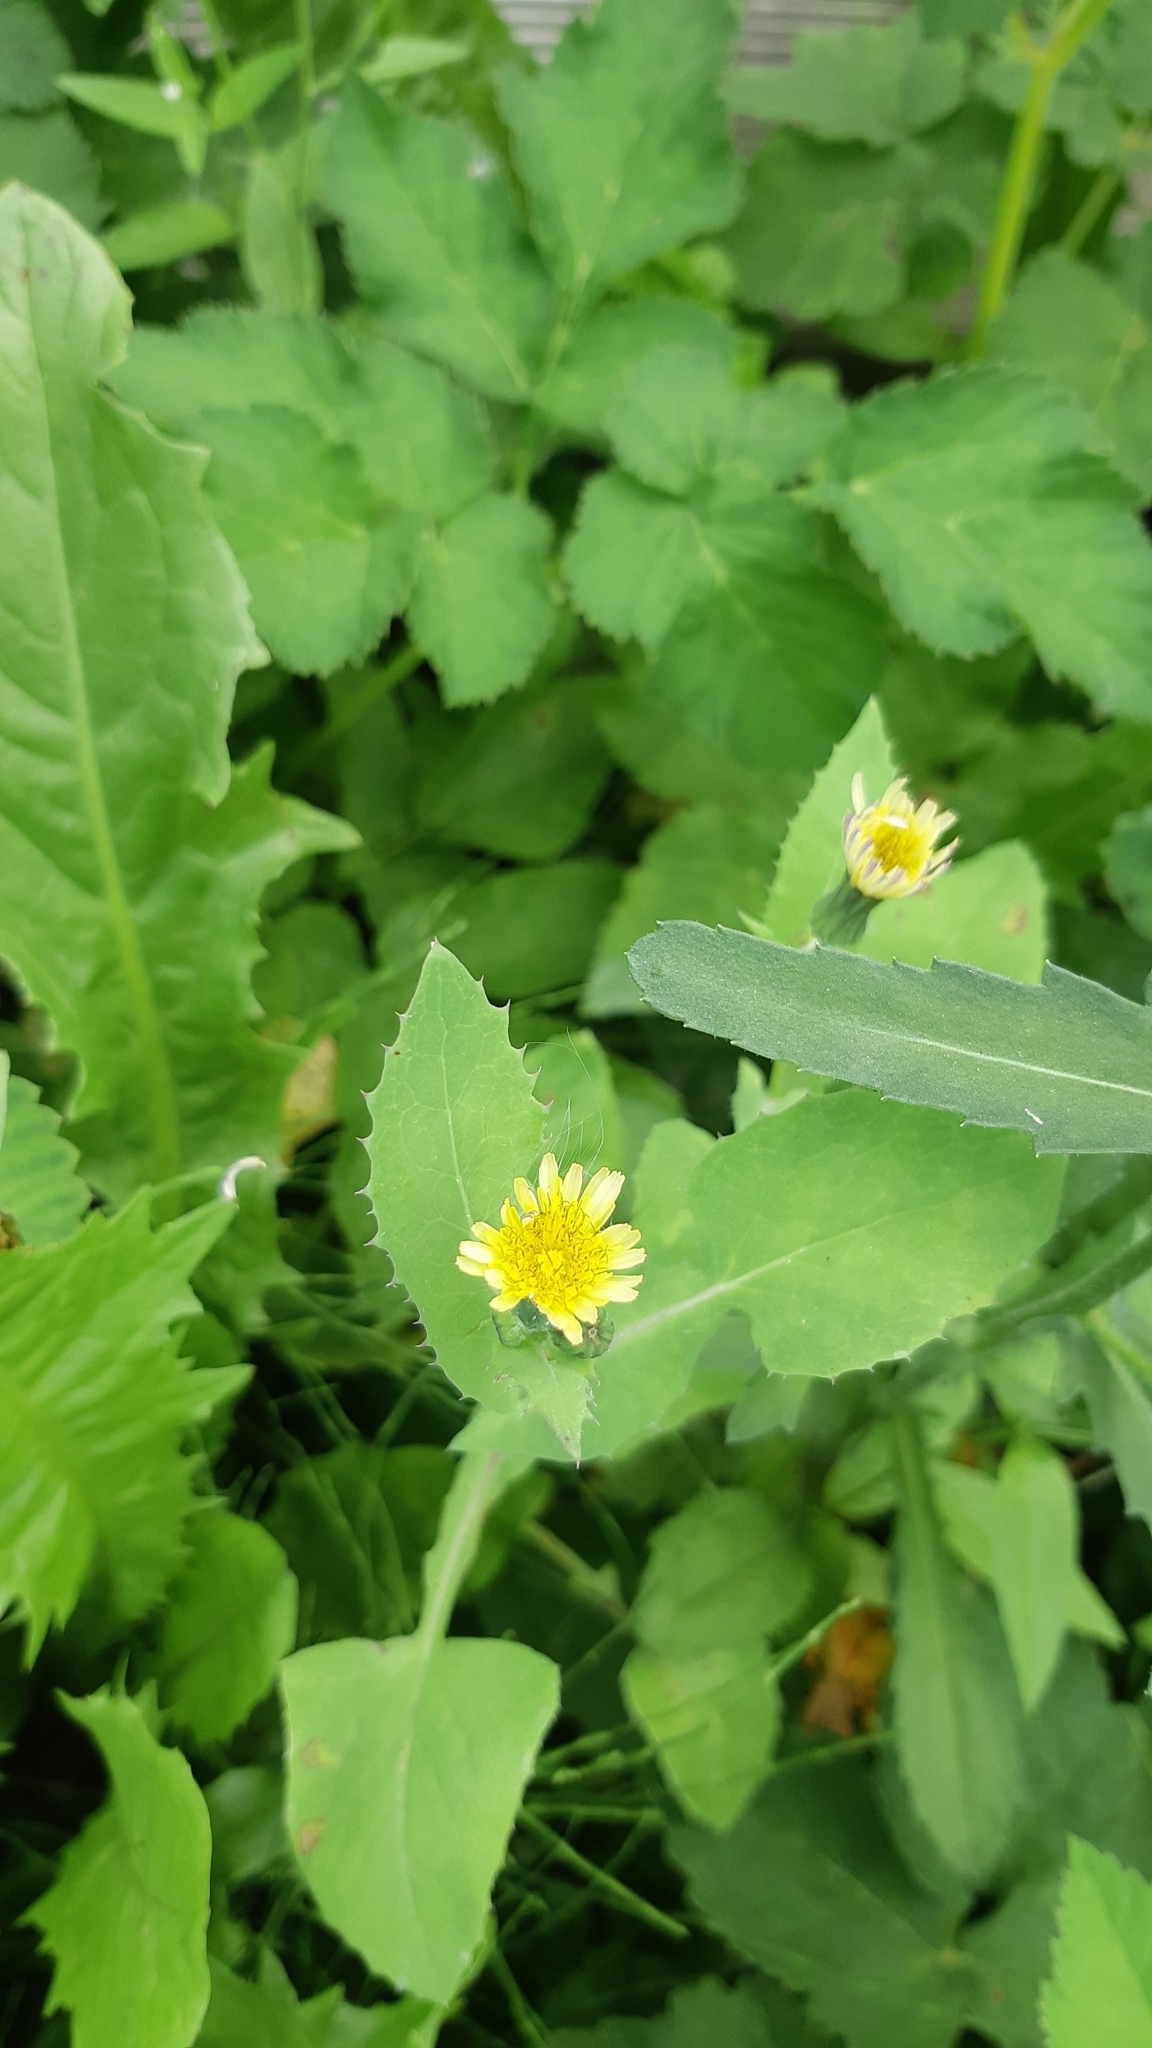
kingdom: Plantae
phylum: Tracheophyta
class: Magnoliopsida
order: Asterales
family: Asteraceae
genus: Sonchus
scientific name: Sonchus oleraceus
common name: Common sowthistle
